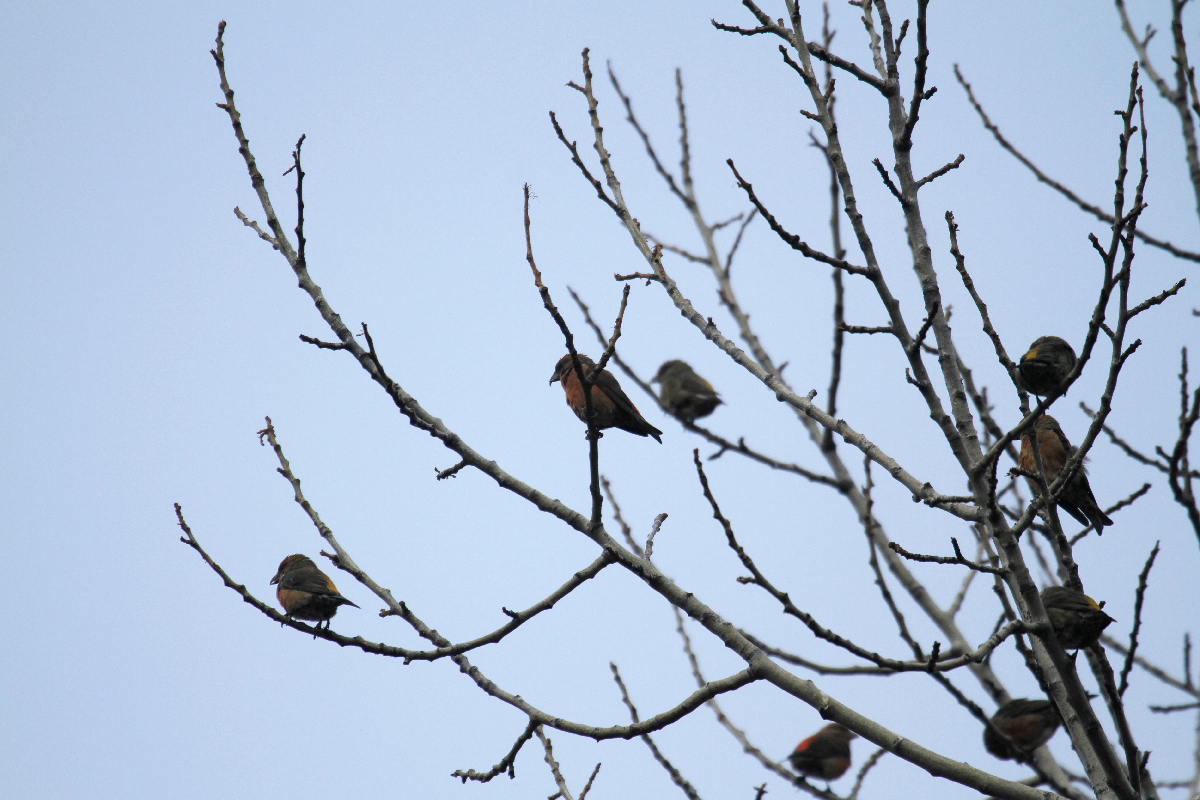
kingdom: Animalia
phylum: Chordata
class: Aves
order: Passeriformes
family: Fringillidae
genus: Loxia
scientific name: Loxia curvirostra
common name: Red crossbill
